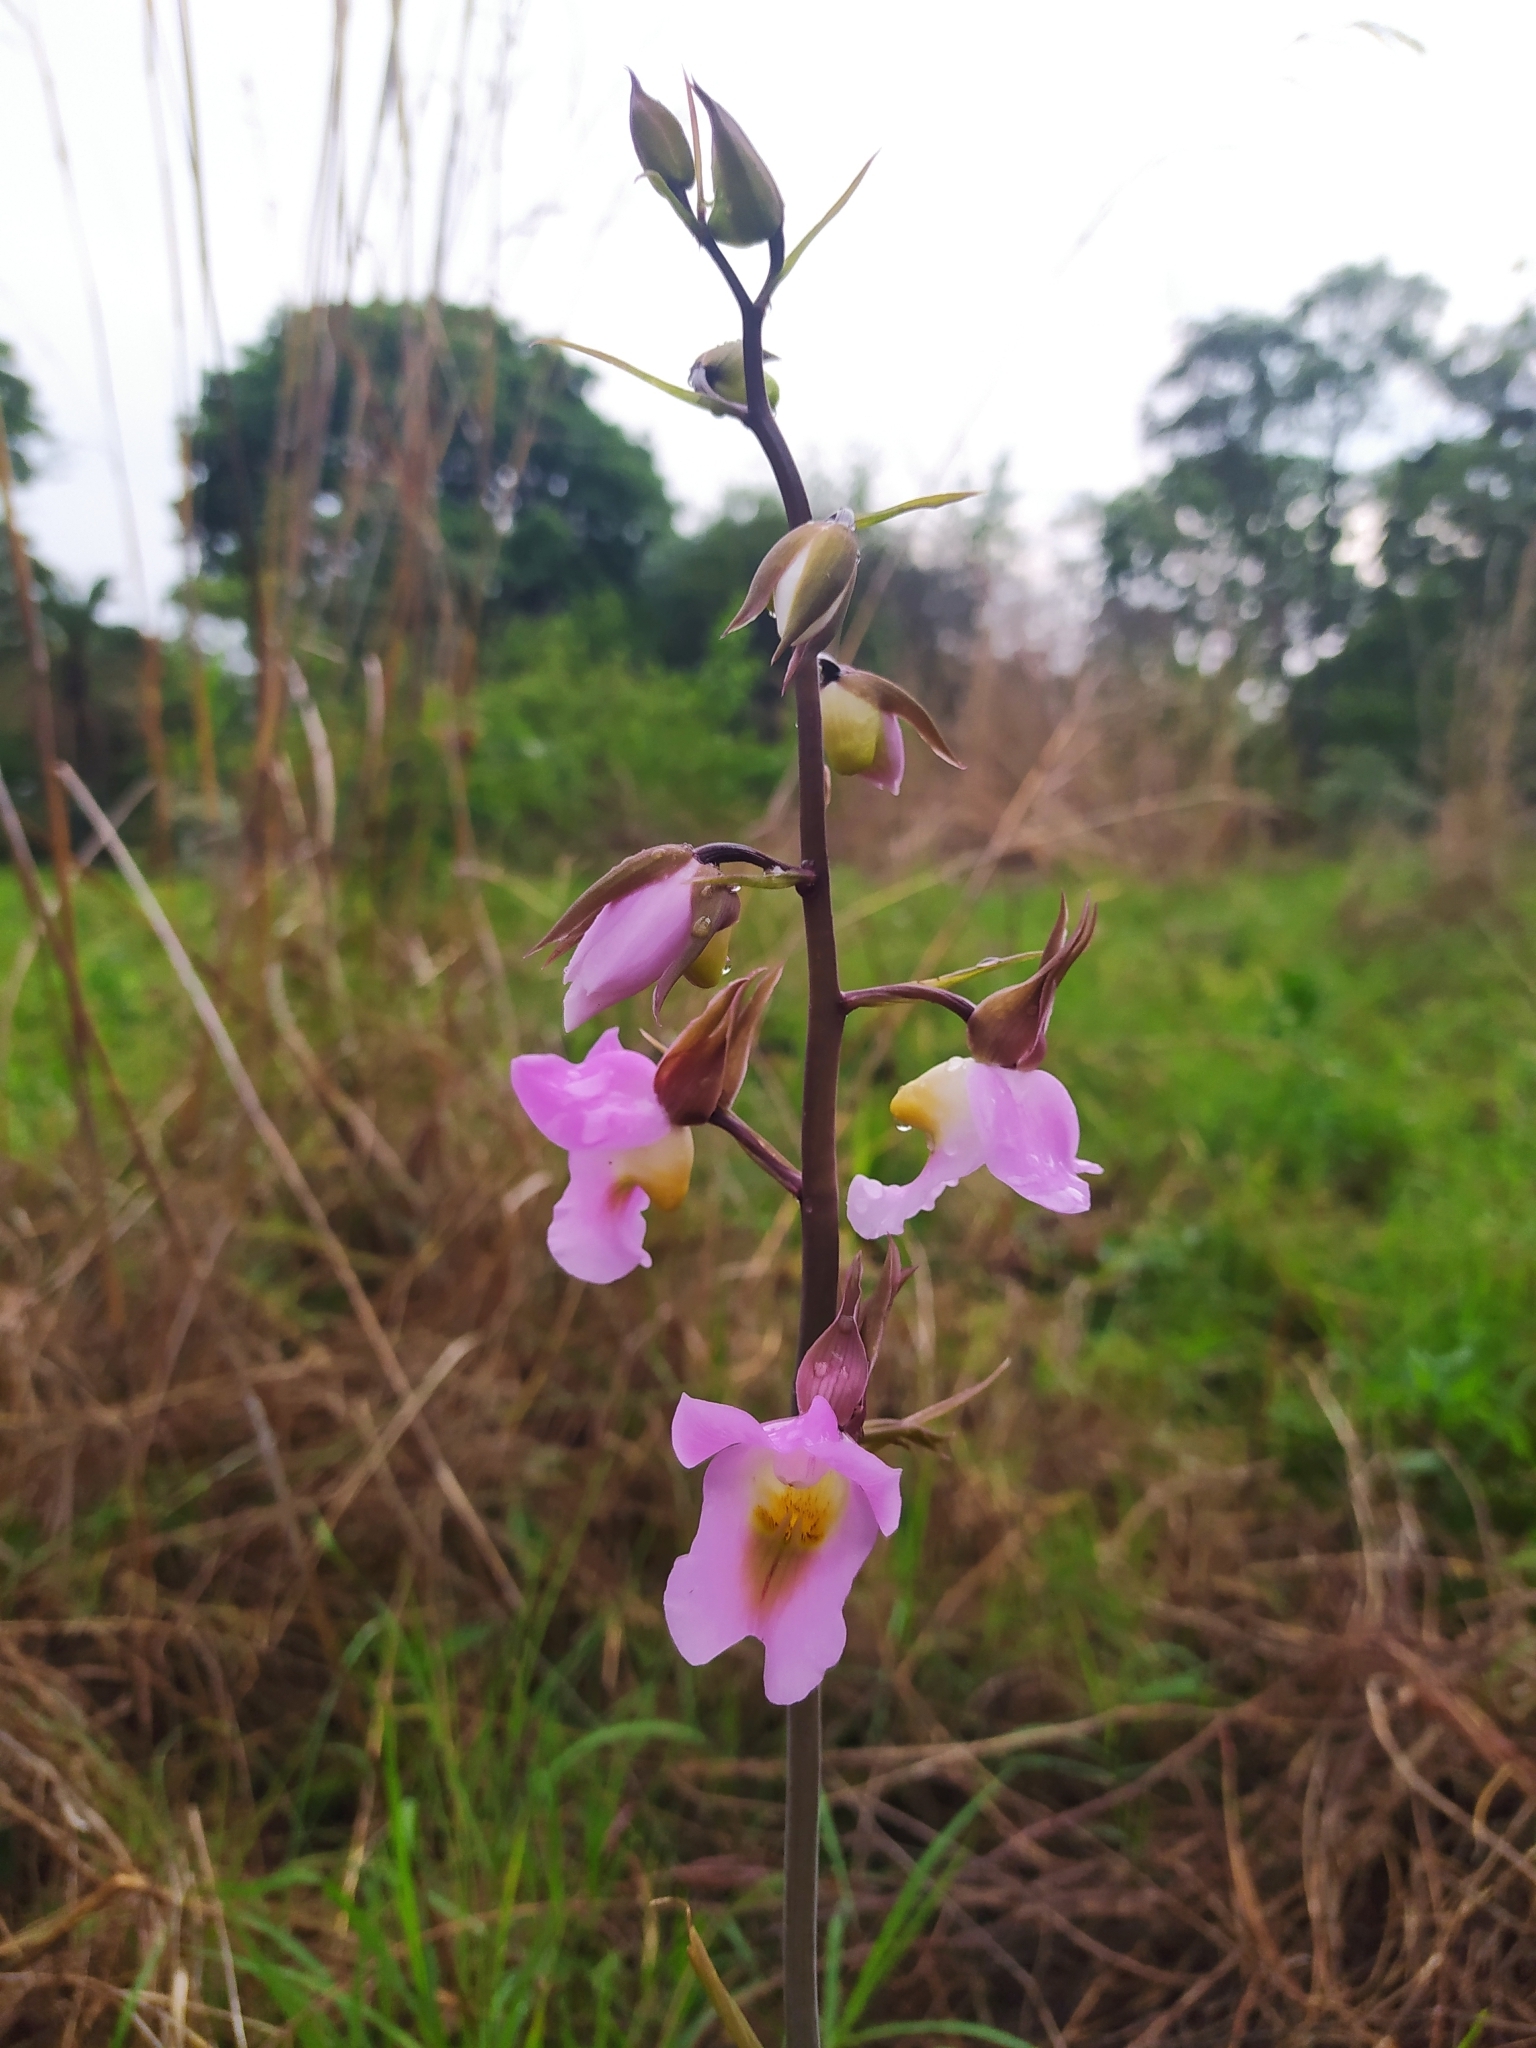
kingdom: Plantae
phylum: Tracheophyta
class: Liliopsida
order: Asparagales
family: Orchidaceae
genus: Eulophia
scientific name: Eulophia cucullata
